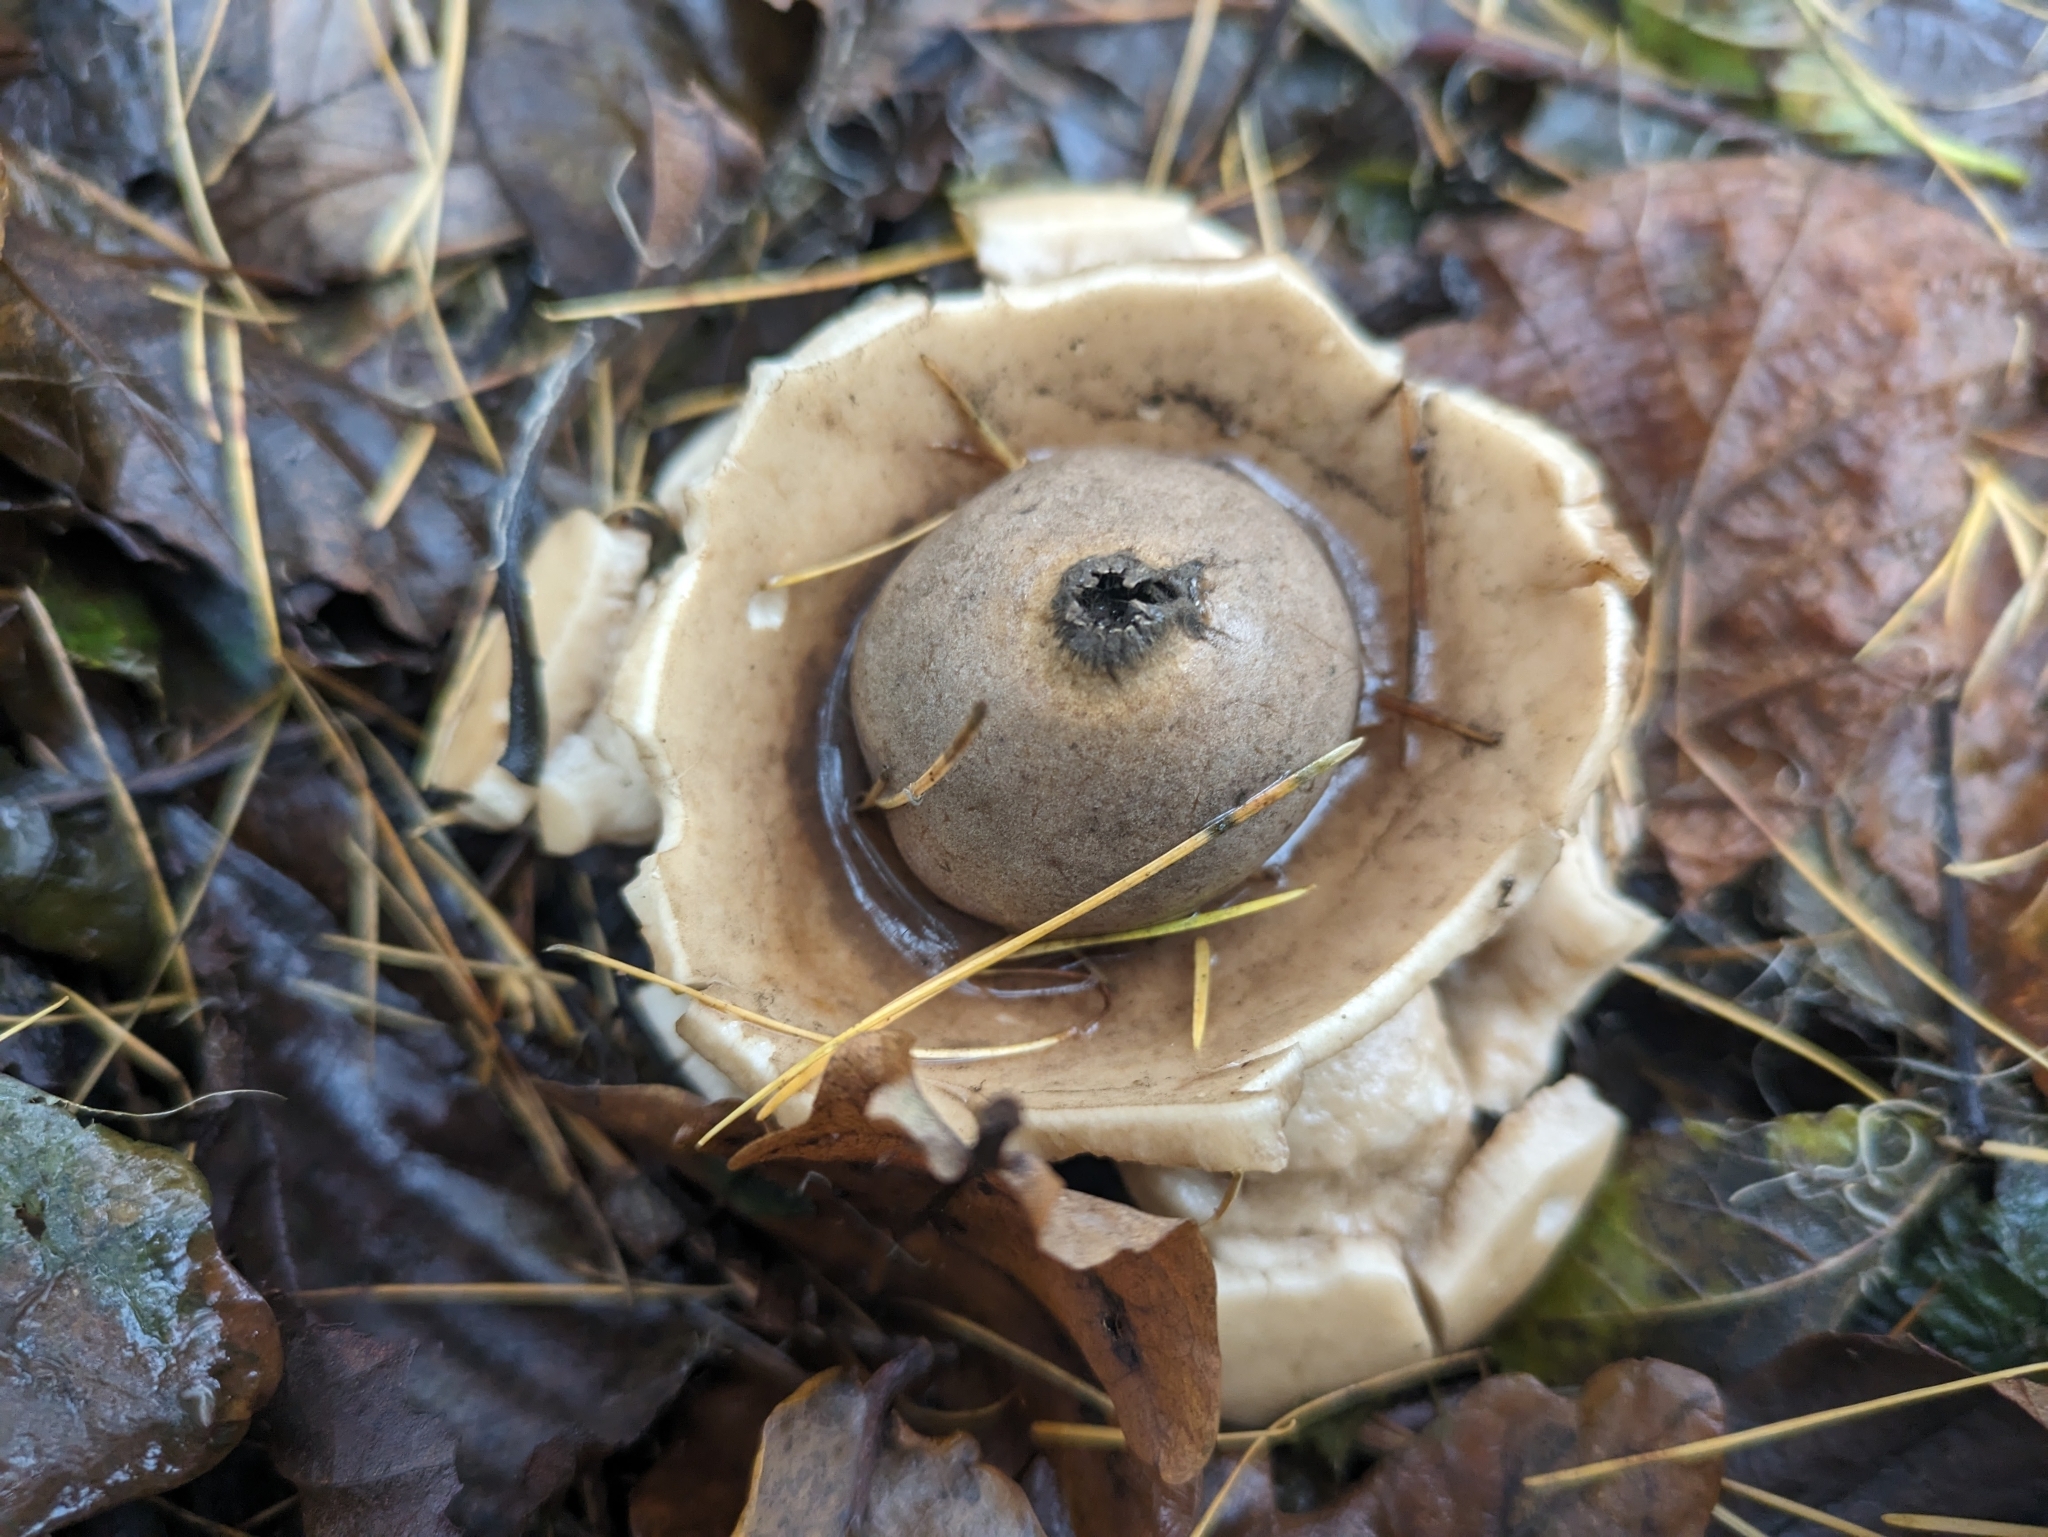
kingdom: Fungi
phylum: Basidiomycota
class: Agaricomycetes
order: Geastrales
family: Geastraceae
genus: Geastrum
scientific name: Geastrum michelianum
